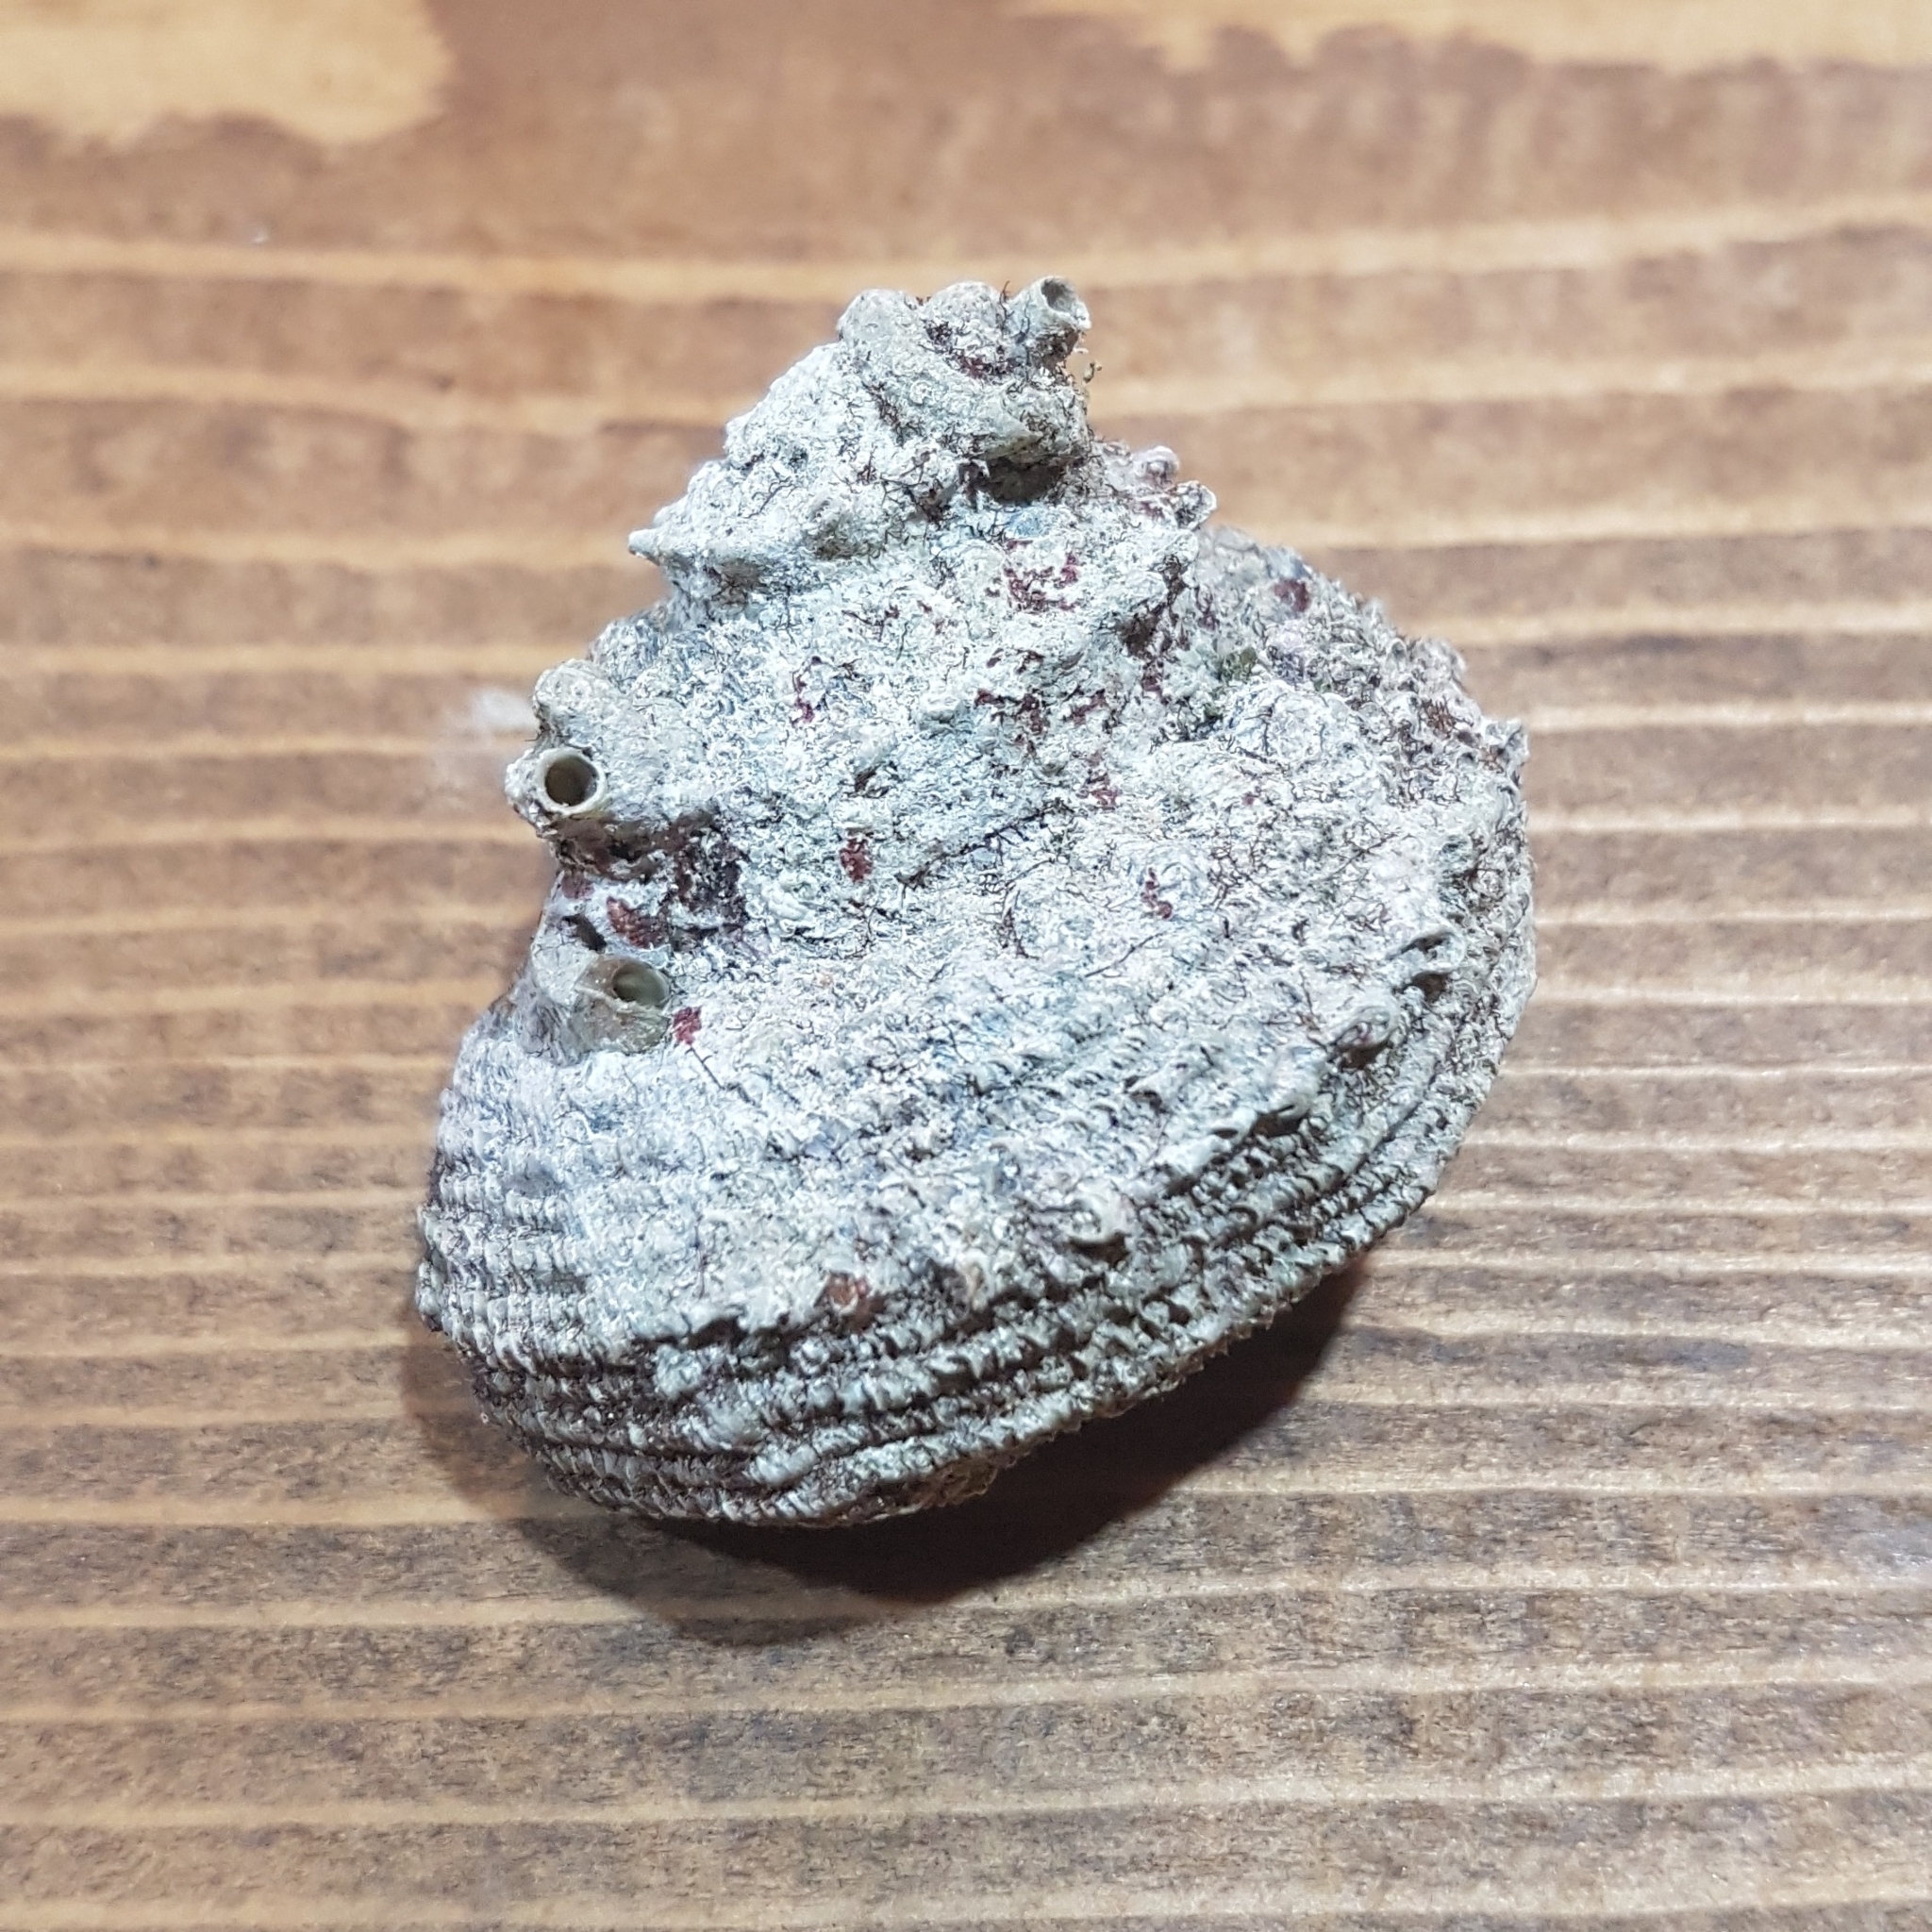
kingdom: Animalia
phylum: Mollusca
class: Gastropoda
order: Trochida
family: Turbinidae
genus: Bolma
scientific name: Bolma rugosa
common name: Rough star shell
